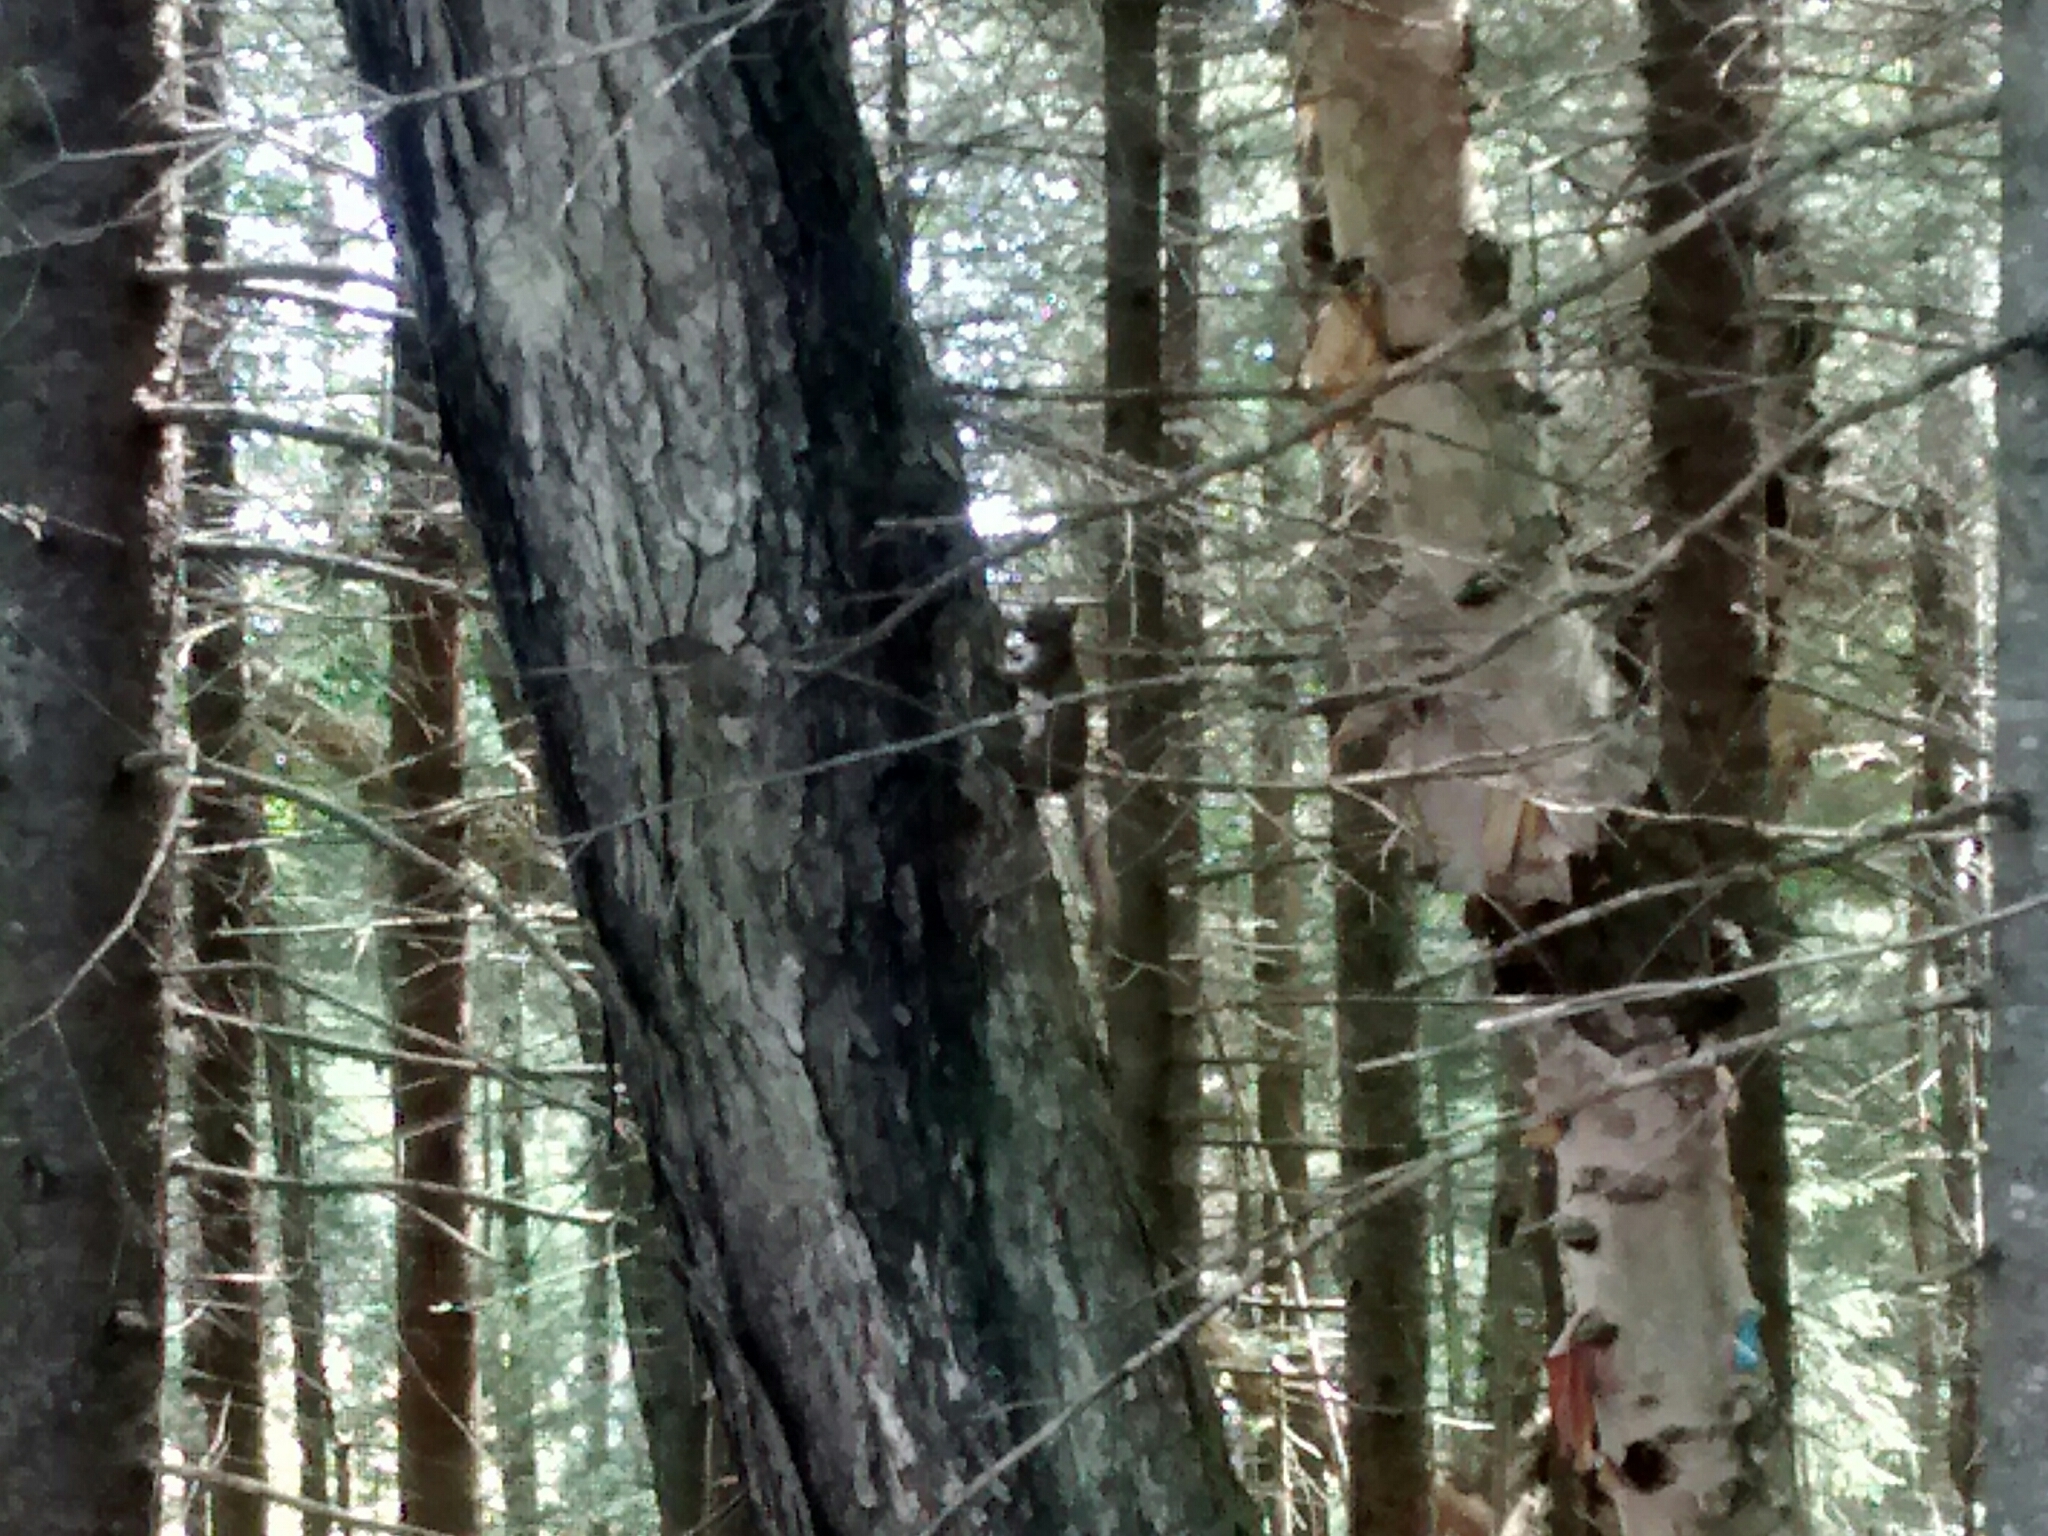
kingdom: Animalia
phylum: Chordata
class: Mammalia
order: Rodentia
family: Sciuridae
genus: Tamiasciurus
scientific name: Tamiasciurus hudsonicus
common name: Red squirrel
